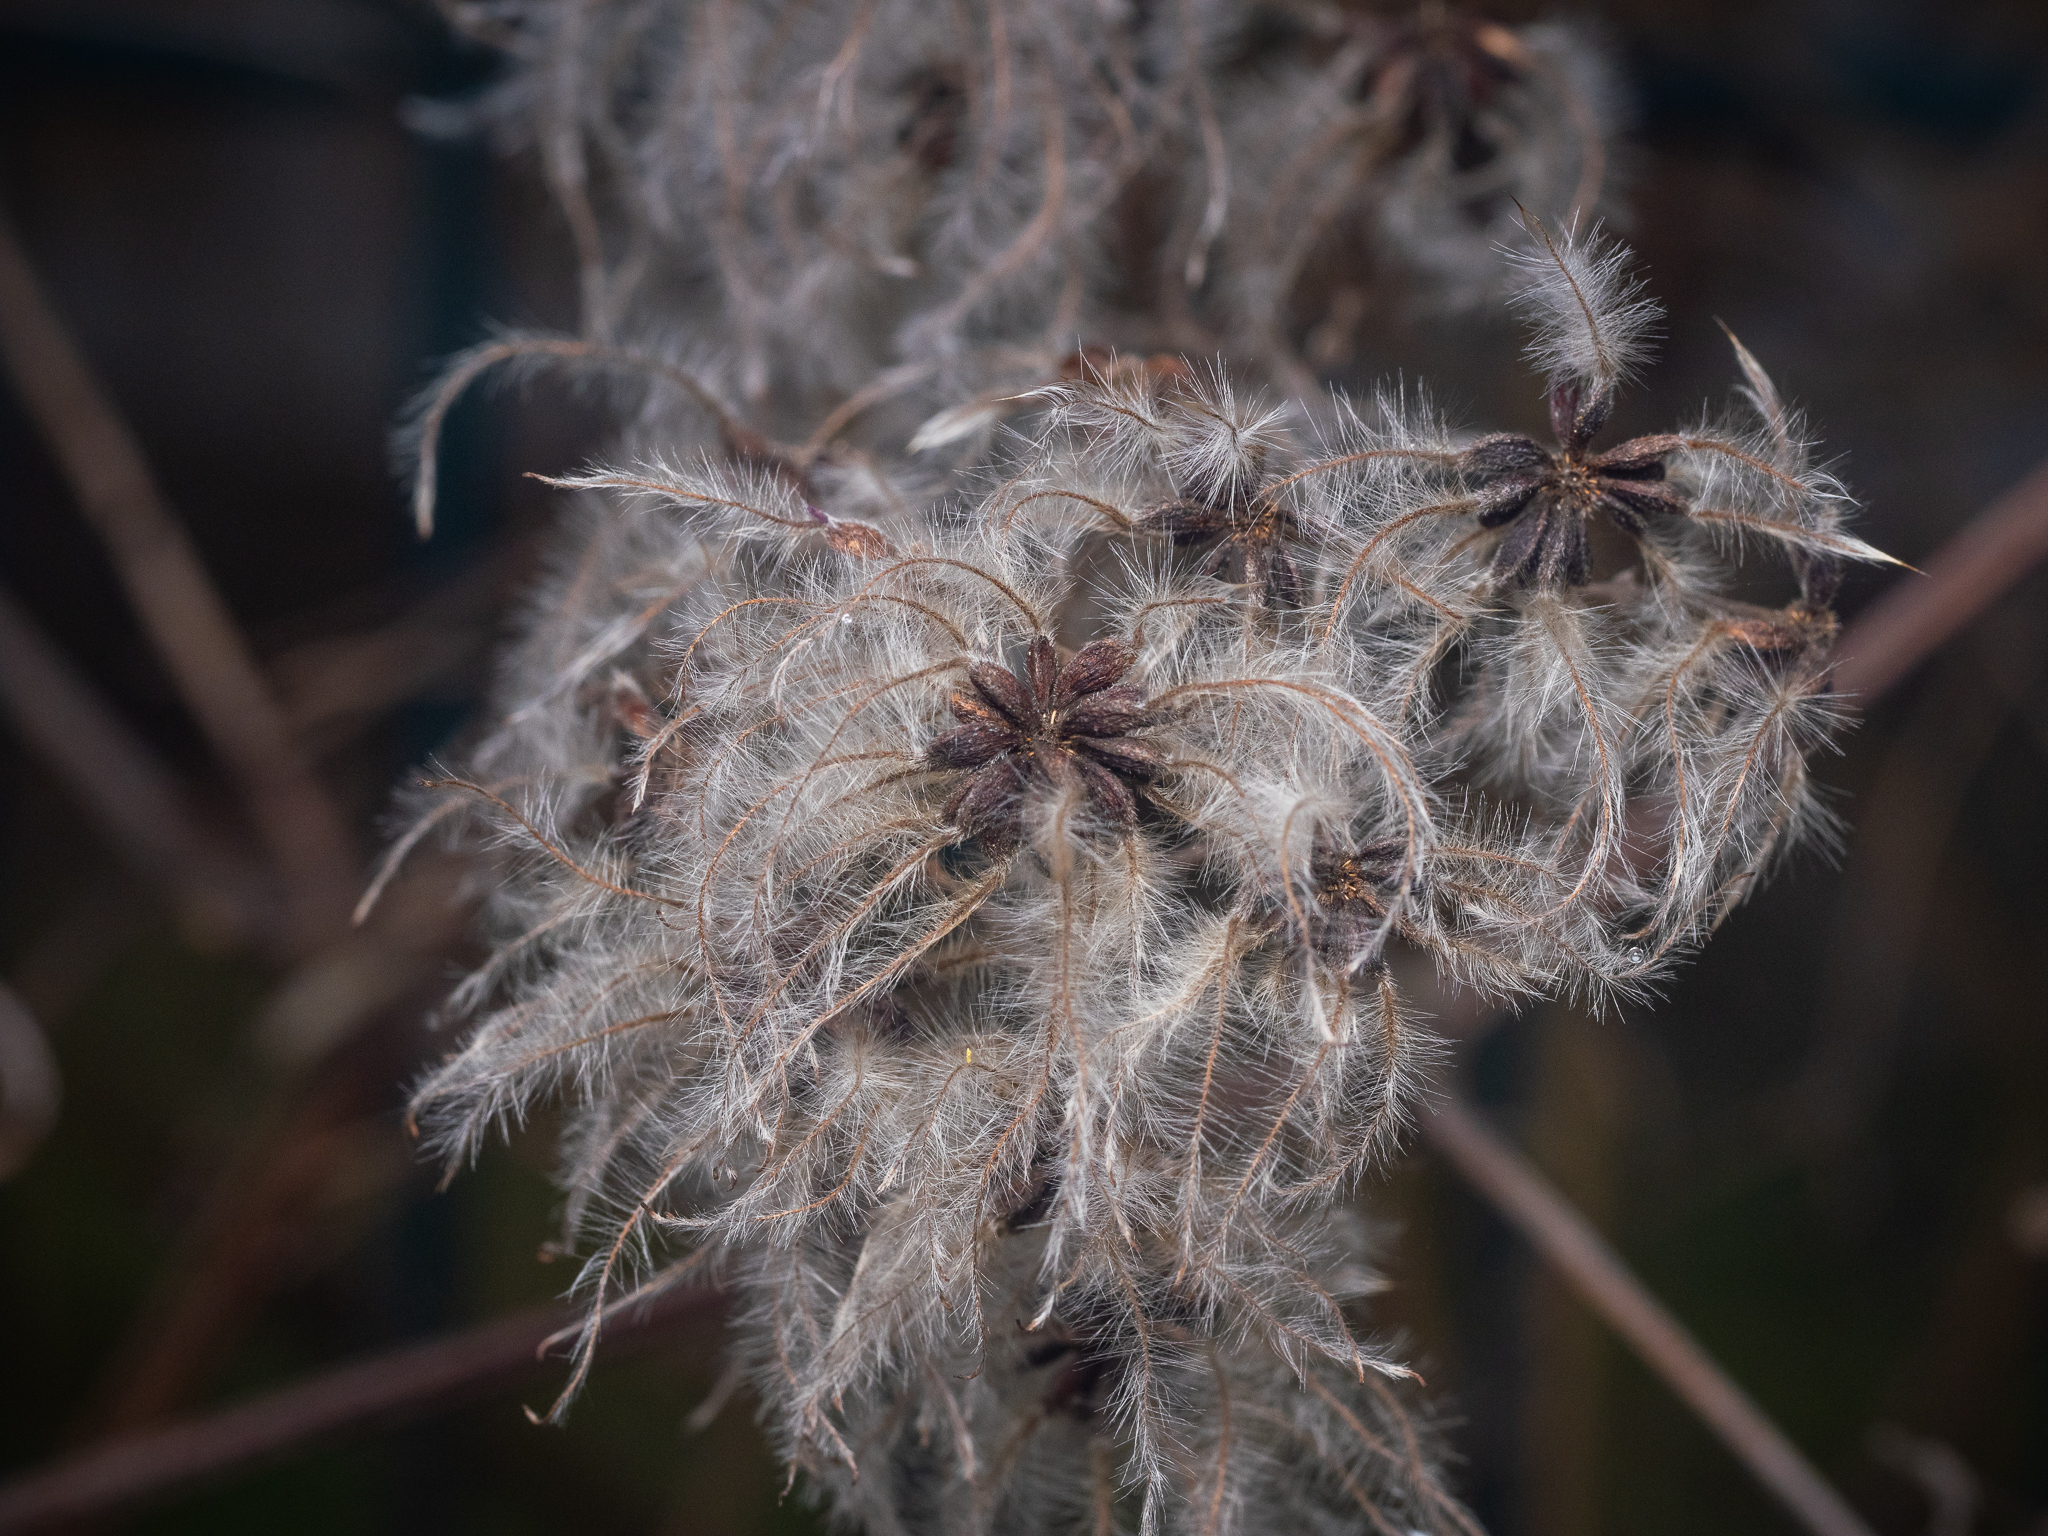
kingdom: Plantae
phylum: Tracheophyta
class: Magnoliopsida
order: Ranunculales
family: Ranunculaceae
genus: Clematis
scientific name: Clematis vitalba
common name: Evergreen clematis
